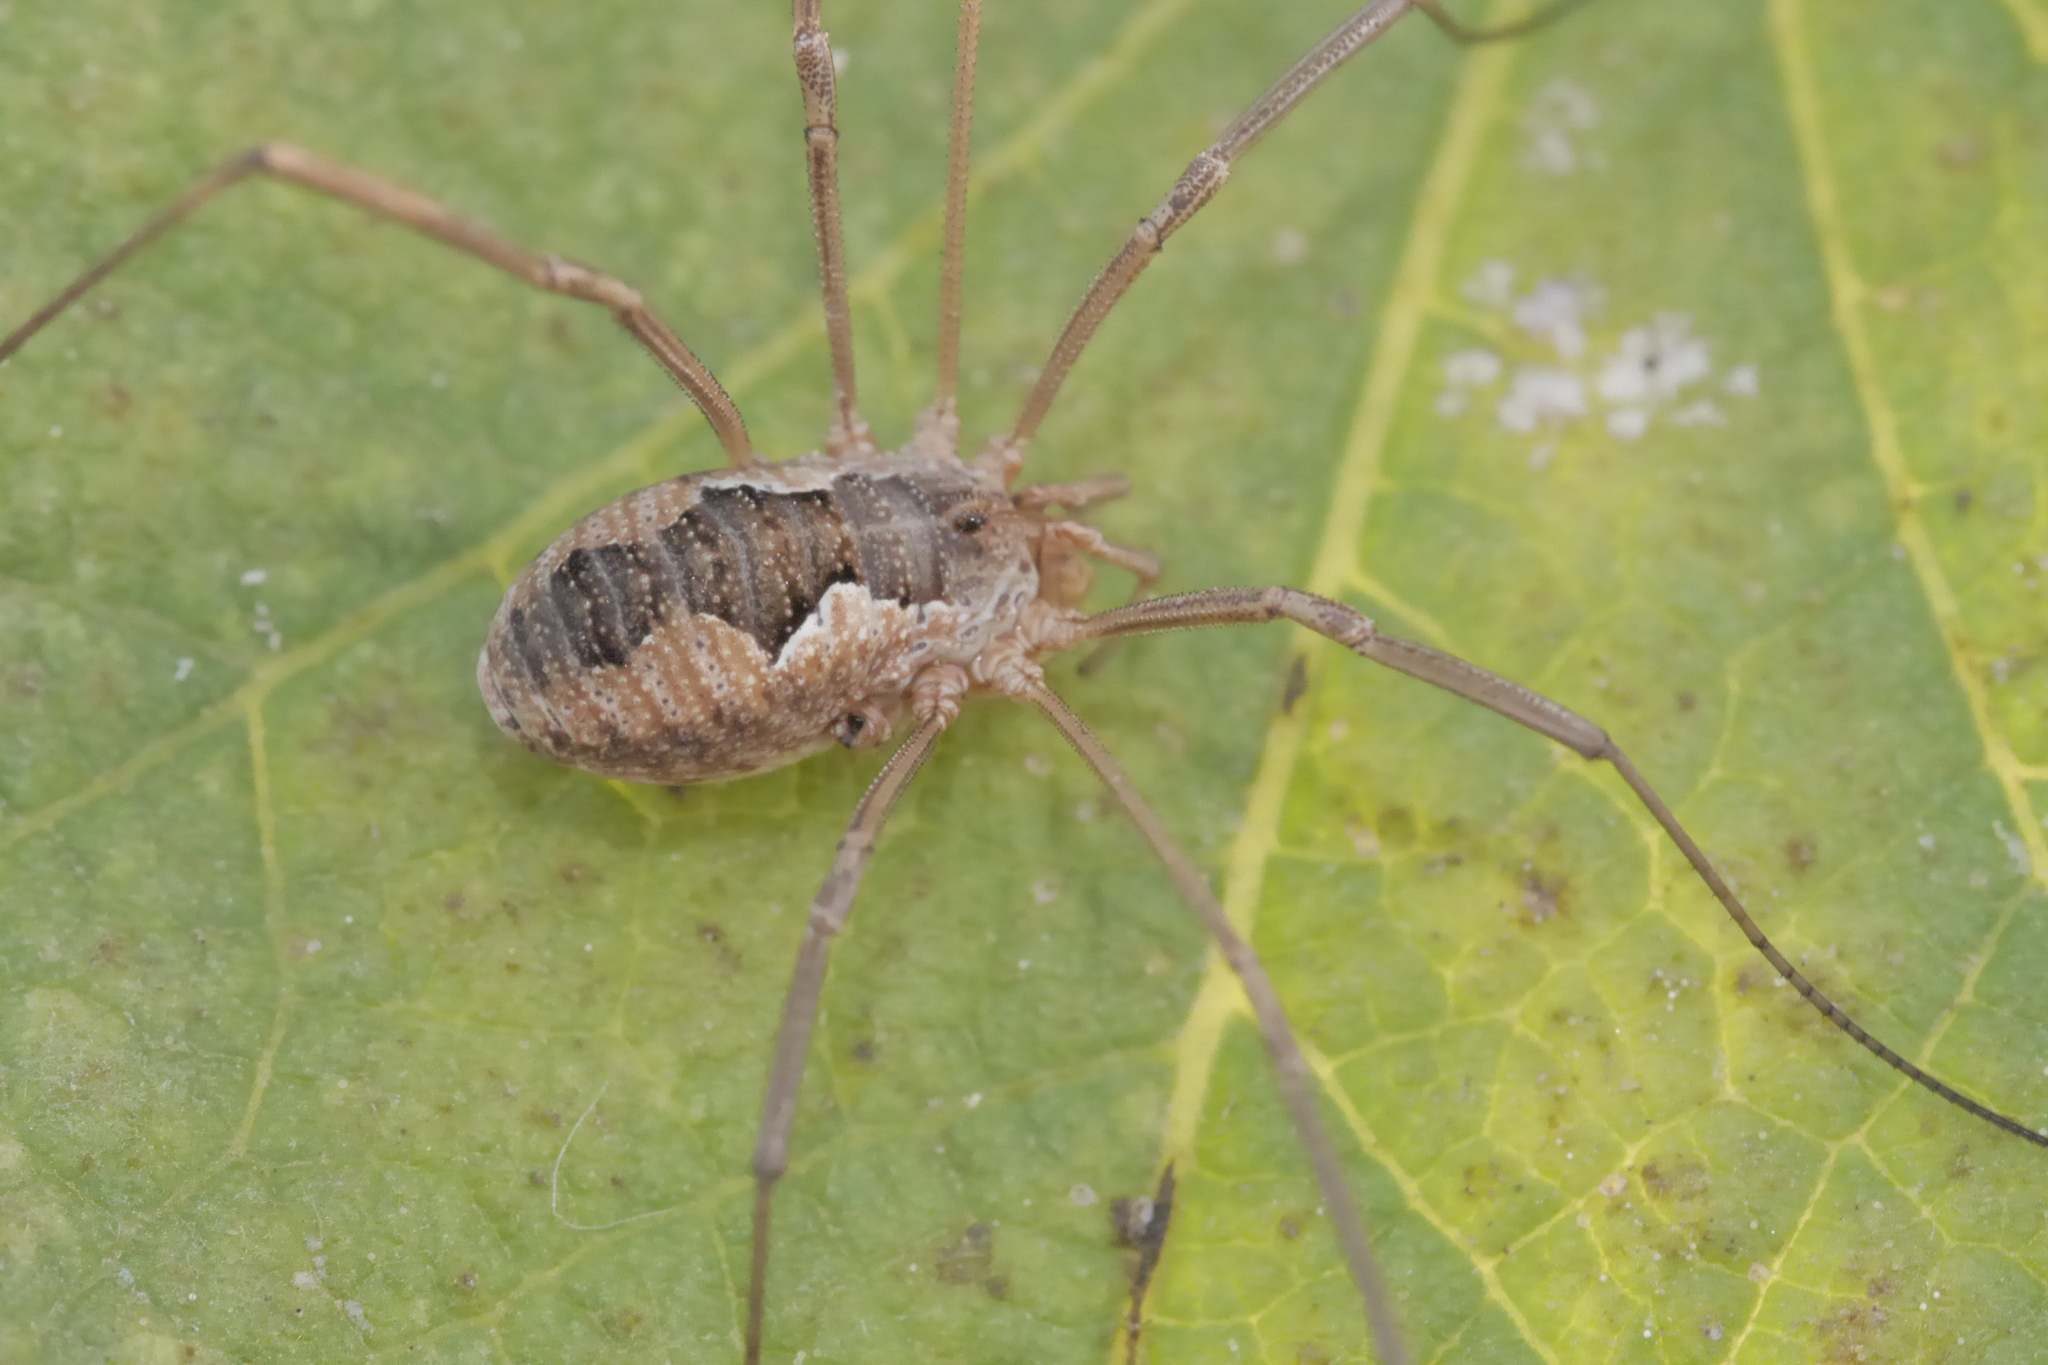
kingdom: Animalia
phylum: Arthropoda
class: Arachnida
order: Opiliones
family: Phalangiidae
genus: Phalangium
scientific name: Phalangium opilio
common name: Daddy longleg
